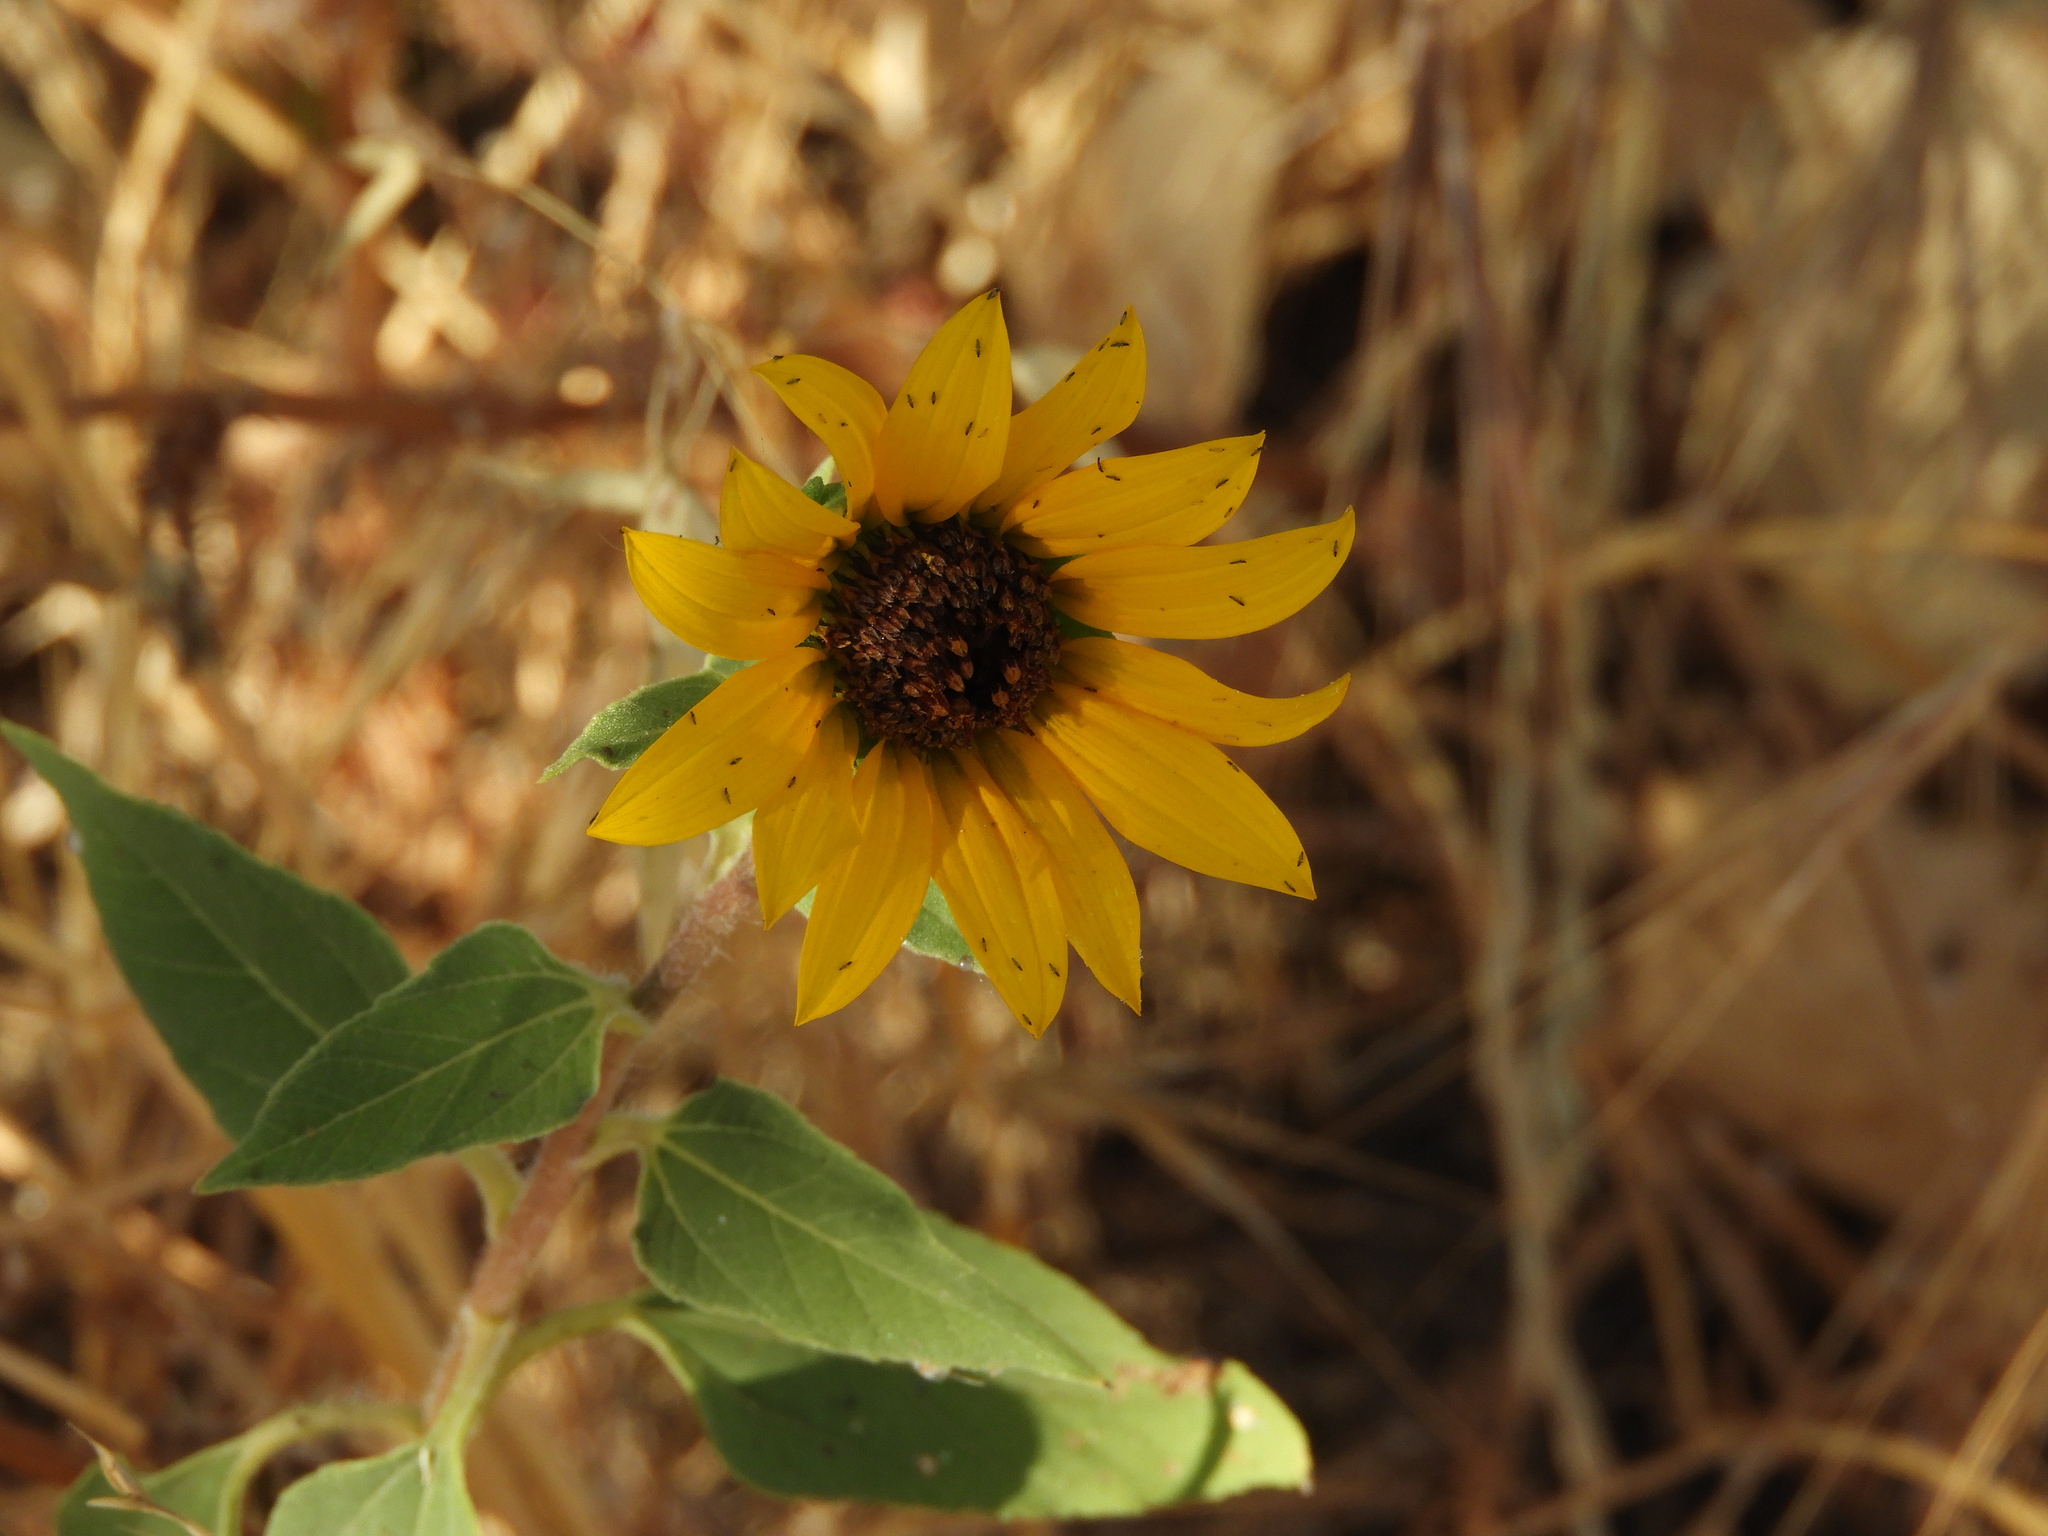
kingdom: Plantae
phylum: Tracheophyta
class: Magnoliopsida
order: Asterales
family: Asteraceae
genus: Helianthus
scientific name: Helianthus annuus
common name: Sunflower
